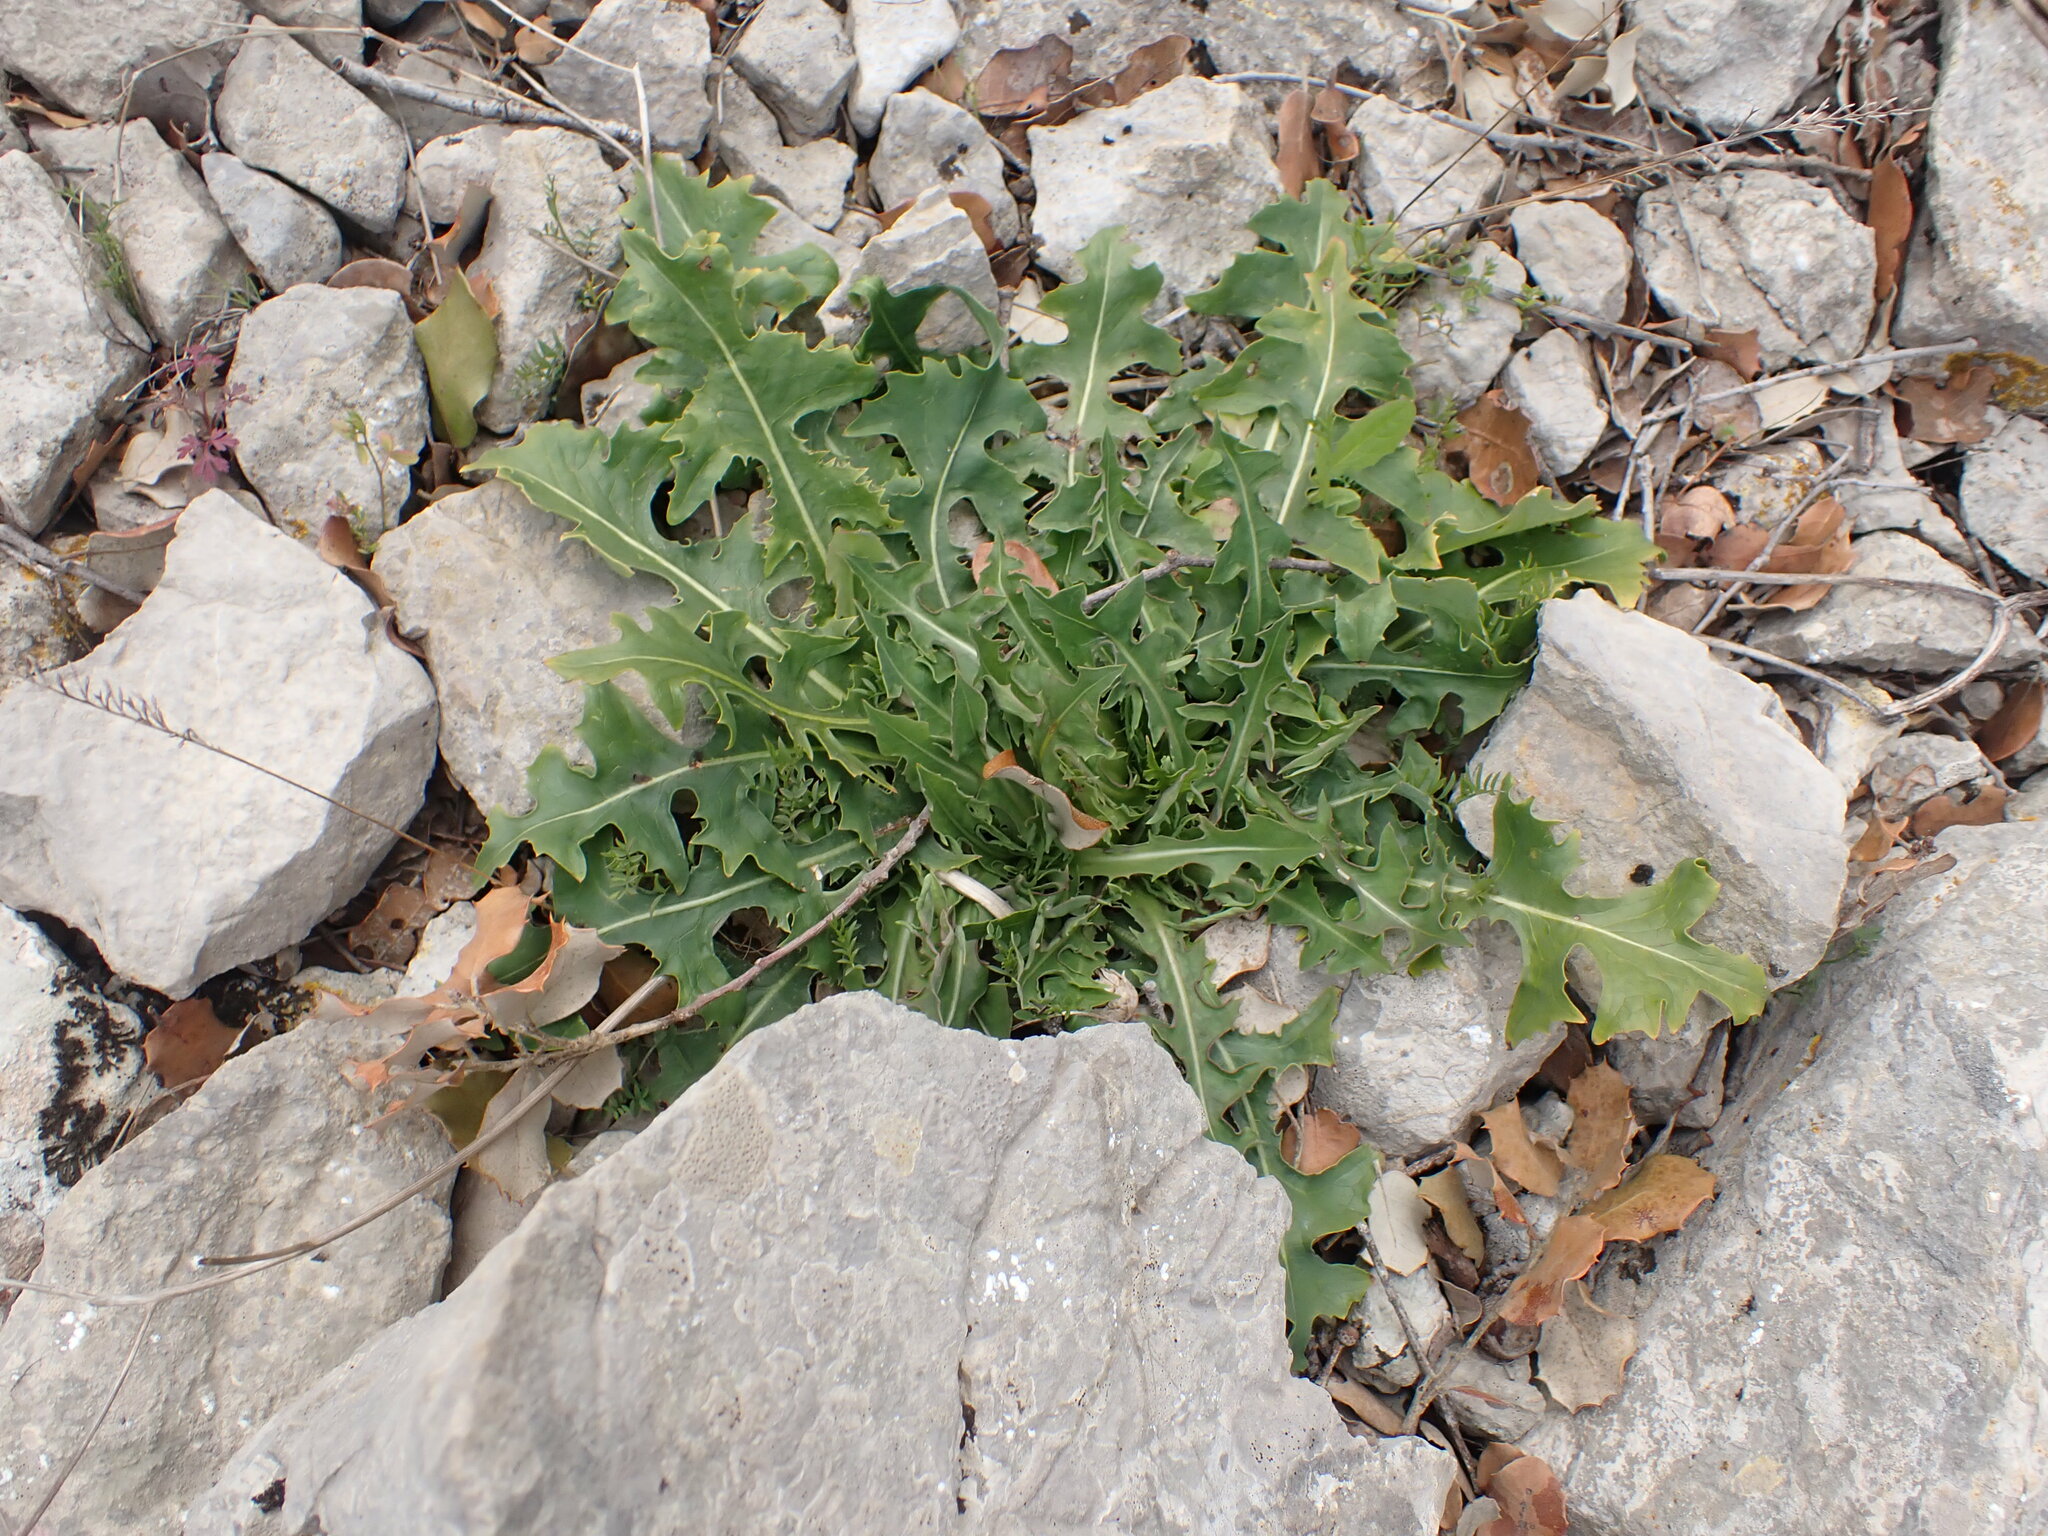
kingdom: Plantae
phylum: Tracheophyta
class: Magnoliopsida
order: Asterales
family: Asteraceae
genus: Lactuca
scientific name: Lactuca perennis
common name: Mountain lettuce
